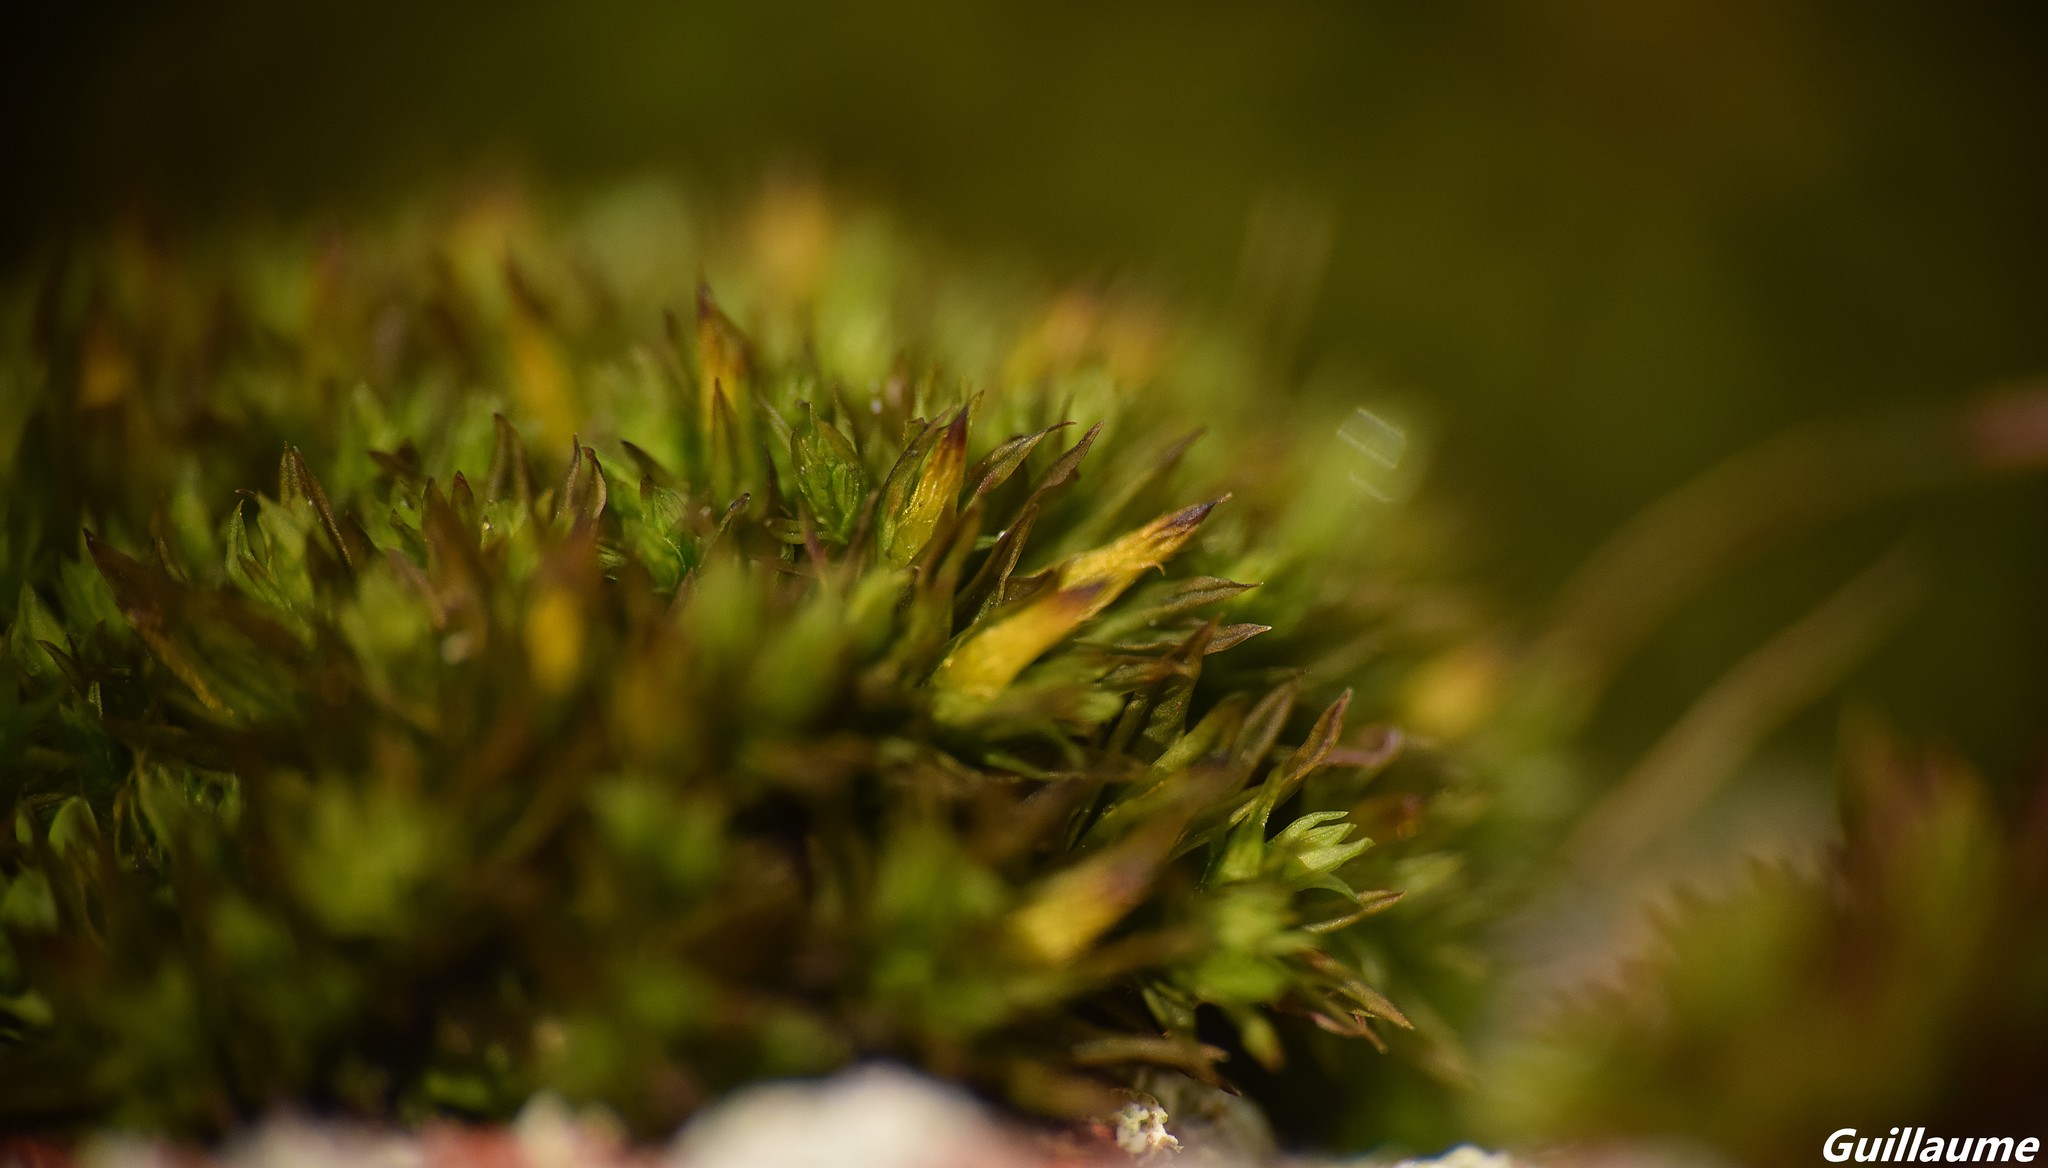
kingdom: Plantae
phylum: Bryophyta
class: Bryopsida
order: Orthotrichales
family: Orthotrichaceae
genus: Orthotrichum
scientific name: Orthotrichum anomalum
